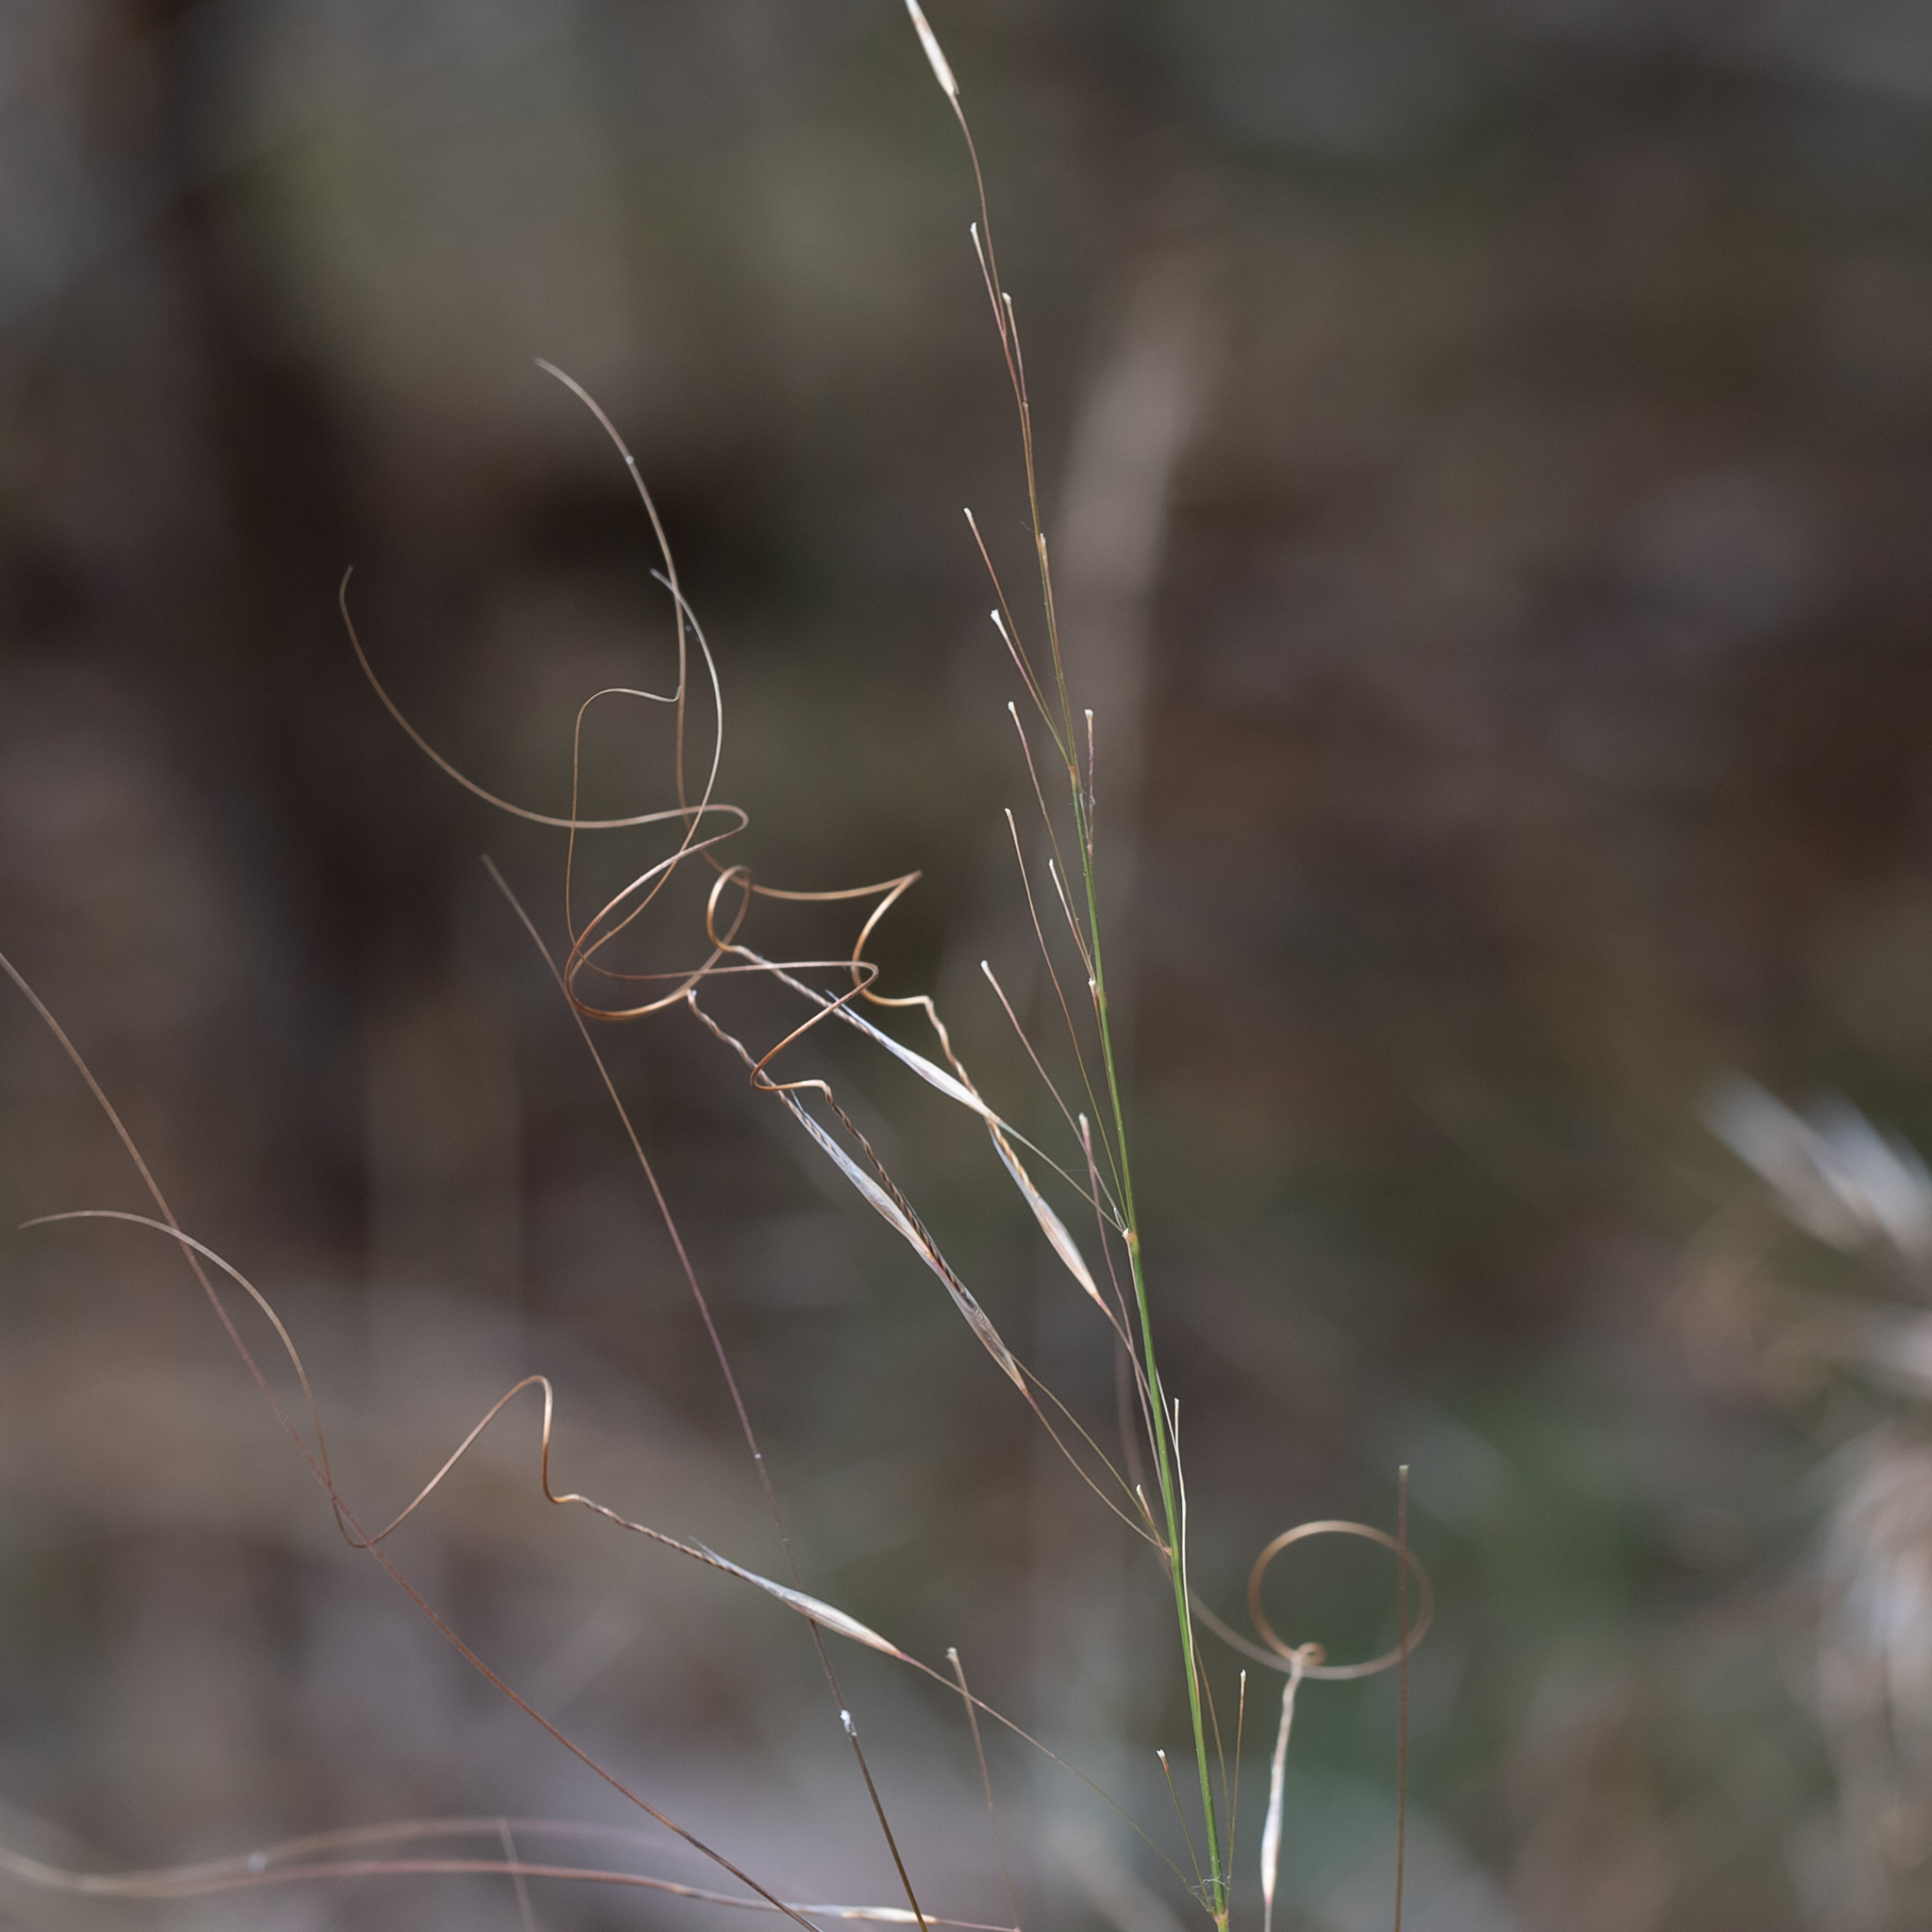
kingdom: Plantae
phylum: Tracheophyta
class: Liliopsida
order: Poales
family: Poaceae
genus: Austrostipa
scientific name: Austrostipa scabra
